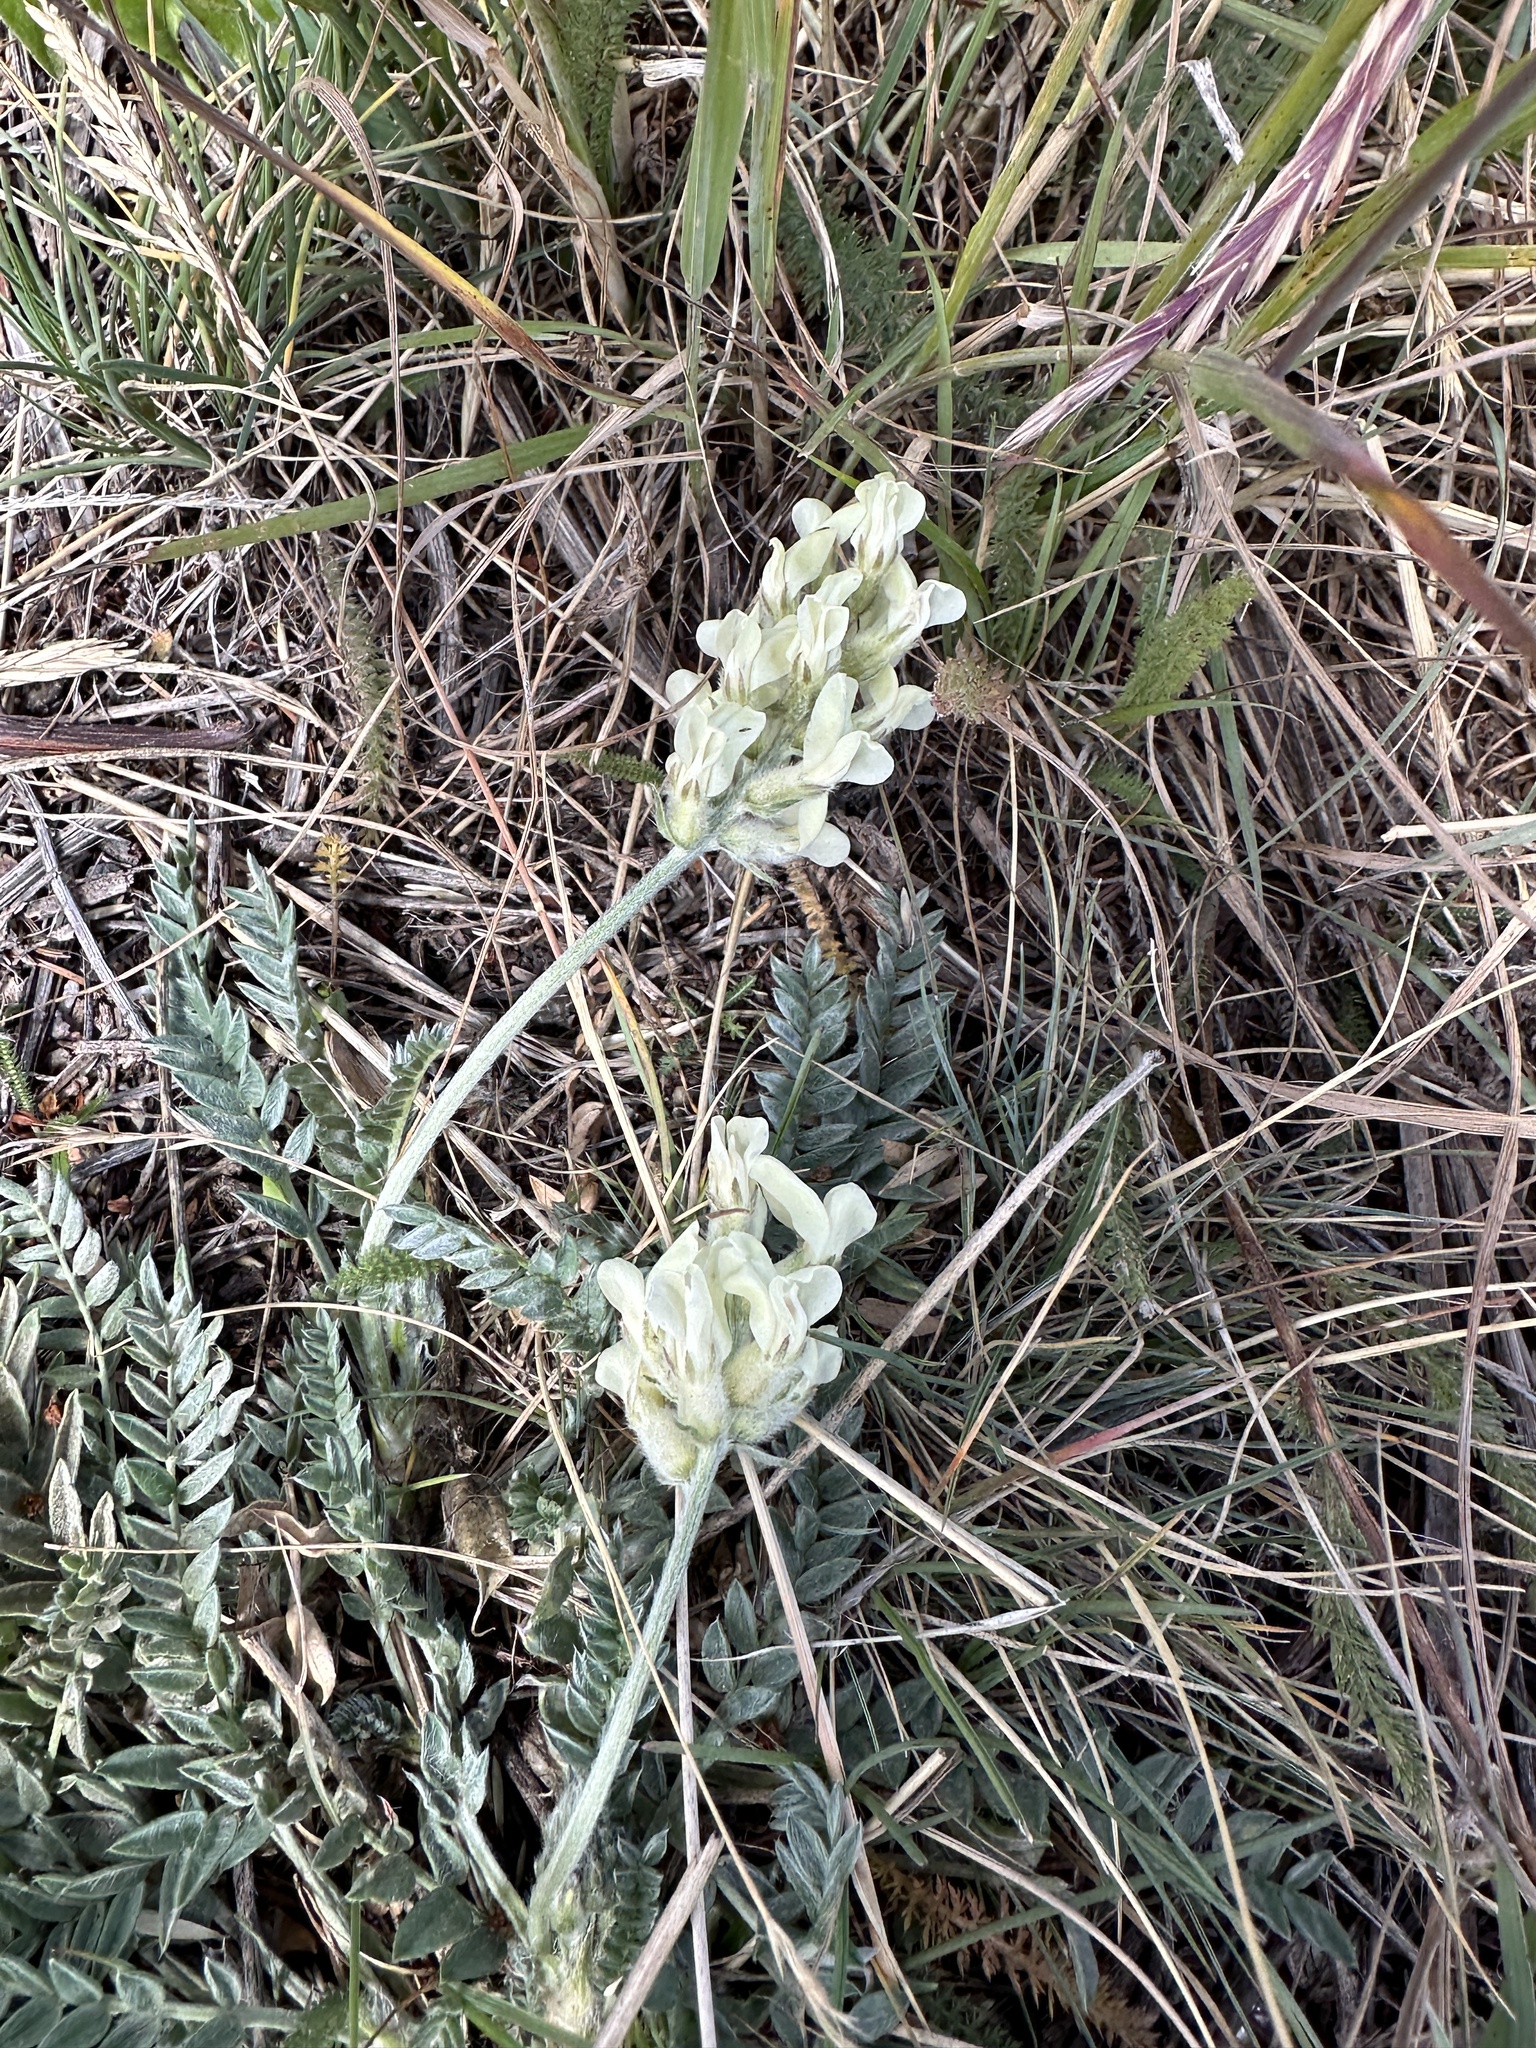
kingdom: Plantae
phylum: Tracheophyta
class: Magnoliopsida
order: Fabales
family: Fabaceae
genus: Oxytropis
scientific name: Oxytropis campestris
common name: Field locoweed
